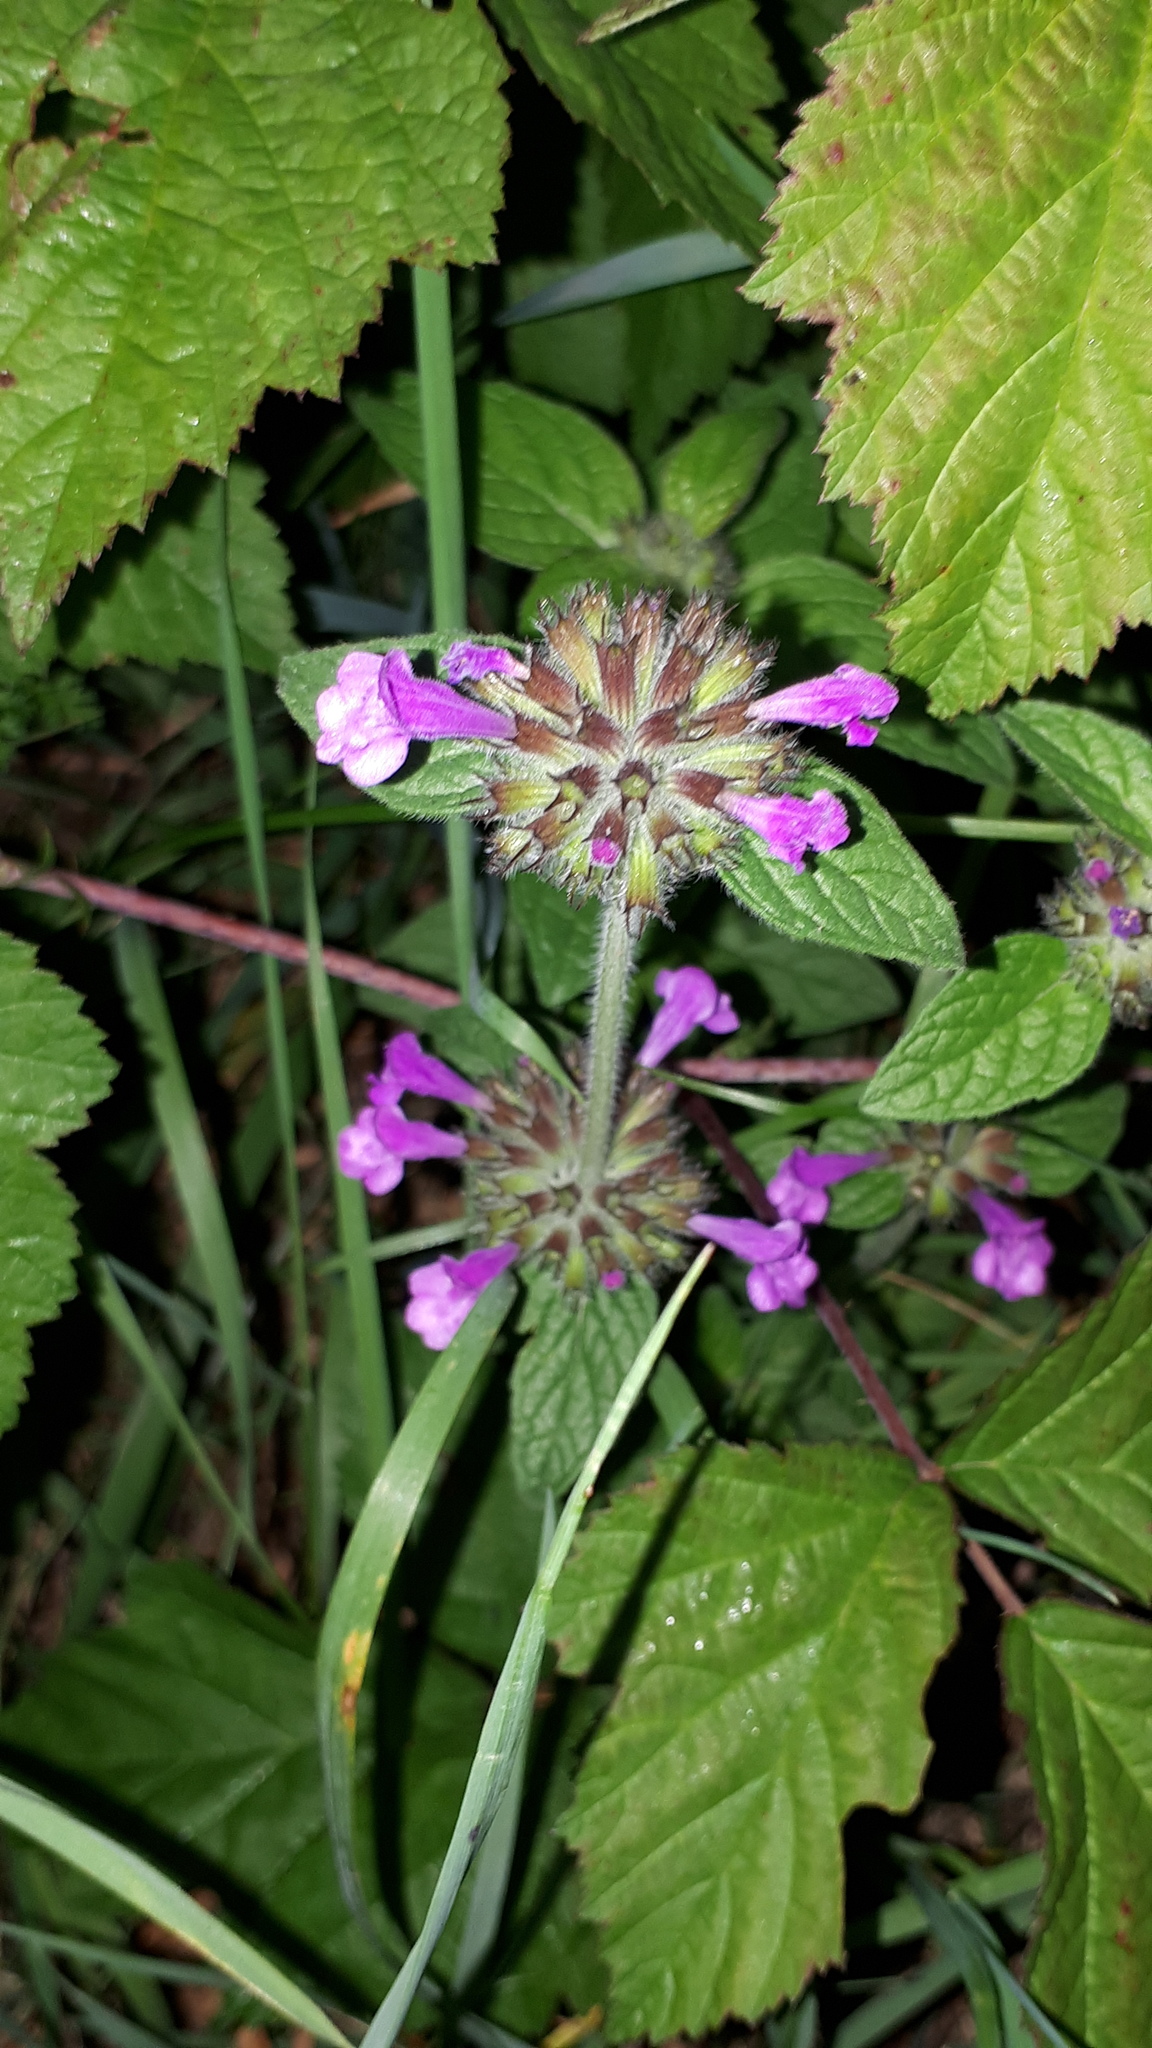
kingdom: Plantae
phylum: Tracheophyta
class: Magnoliopsida
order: Lamiales
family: Lamiaceae
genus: Clinopodium
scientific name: Clinopodium vulgare
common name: Wild basil
